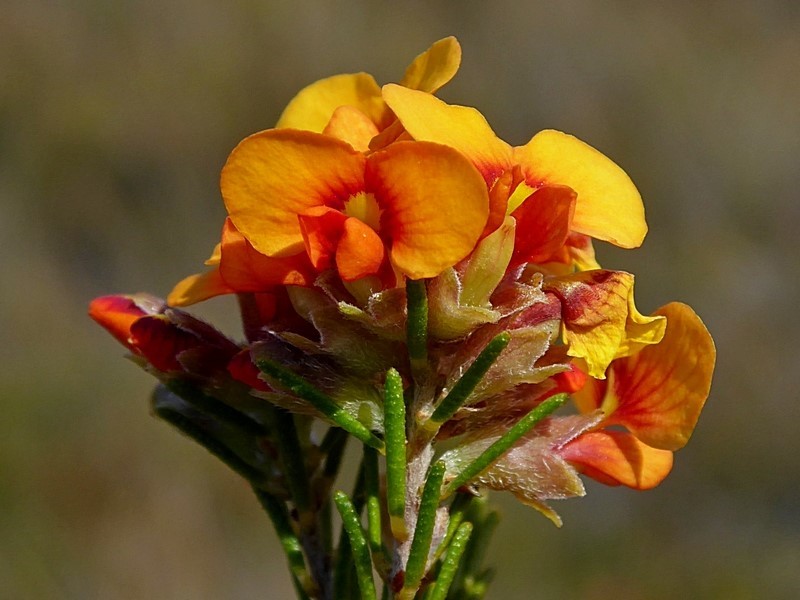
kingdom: Plantae
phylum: Tracheophyta
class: Magnoliopsida
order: Fabales
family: Fabaceae
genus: Dillwynia
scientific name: Dillwynia sericea
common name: Showy parrot-pea
